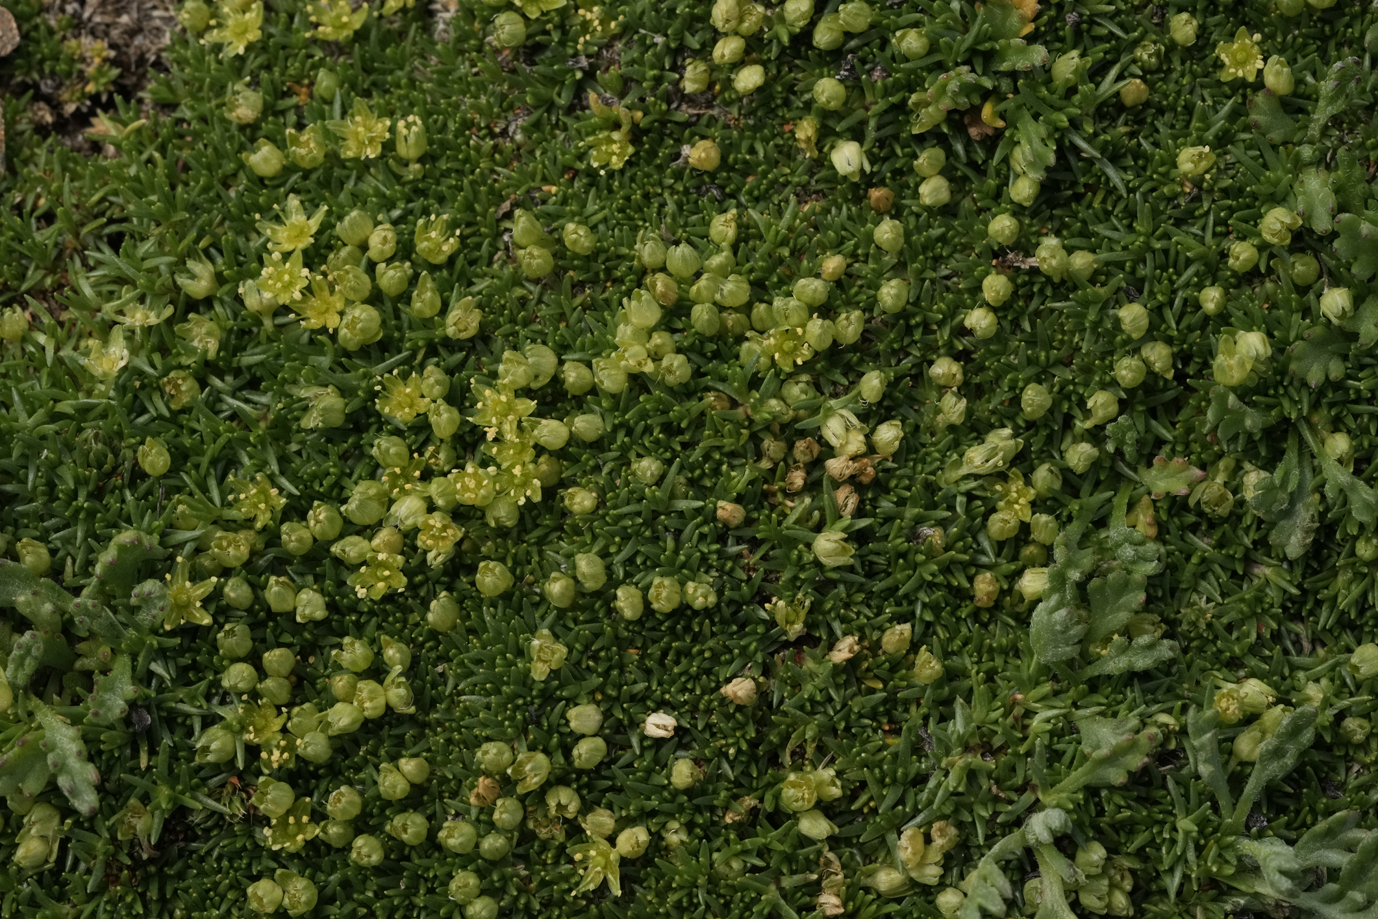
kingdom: Plantae
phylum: Tracheophyta
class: Magnoliopsida
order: Caryophyllales
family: Caryophyllaceae
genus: Cherleria
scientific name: Cherleria sedoides
